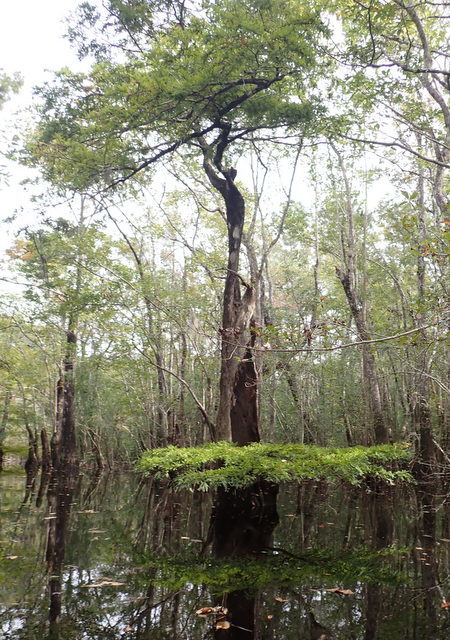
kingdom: Plantae
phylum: Tracheophyta
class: Pinopsida
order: Pinales
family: Cupressaceae
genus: Taxodium
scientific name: Taxodium distichum
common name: Bald cypress
